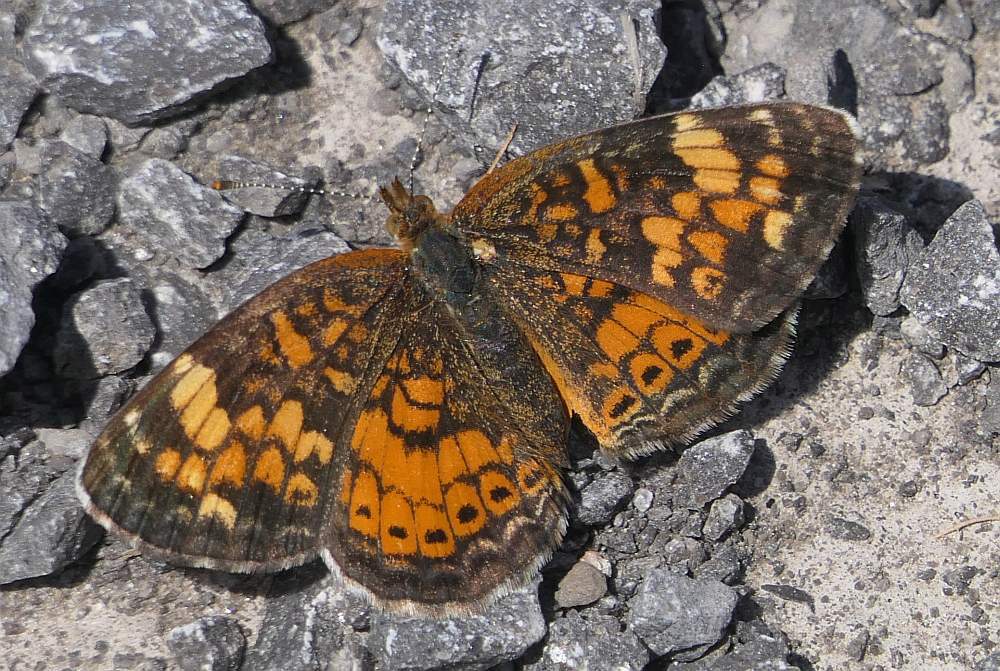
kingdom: Animalia
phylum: Arthropoda
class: Insecta
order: Lepidoptera
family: Nymphalidae
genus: Phyciodes
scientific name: Phyciodes tharos
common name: Pearl crescent
